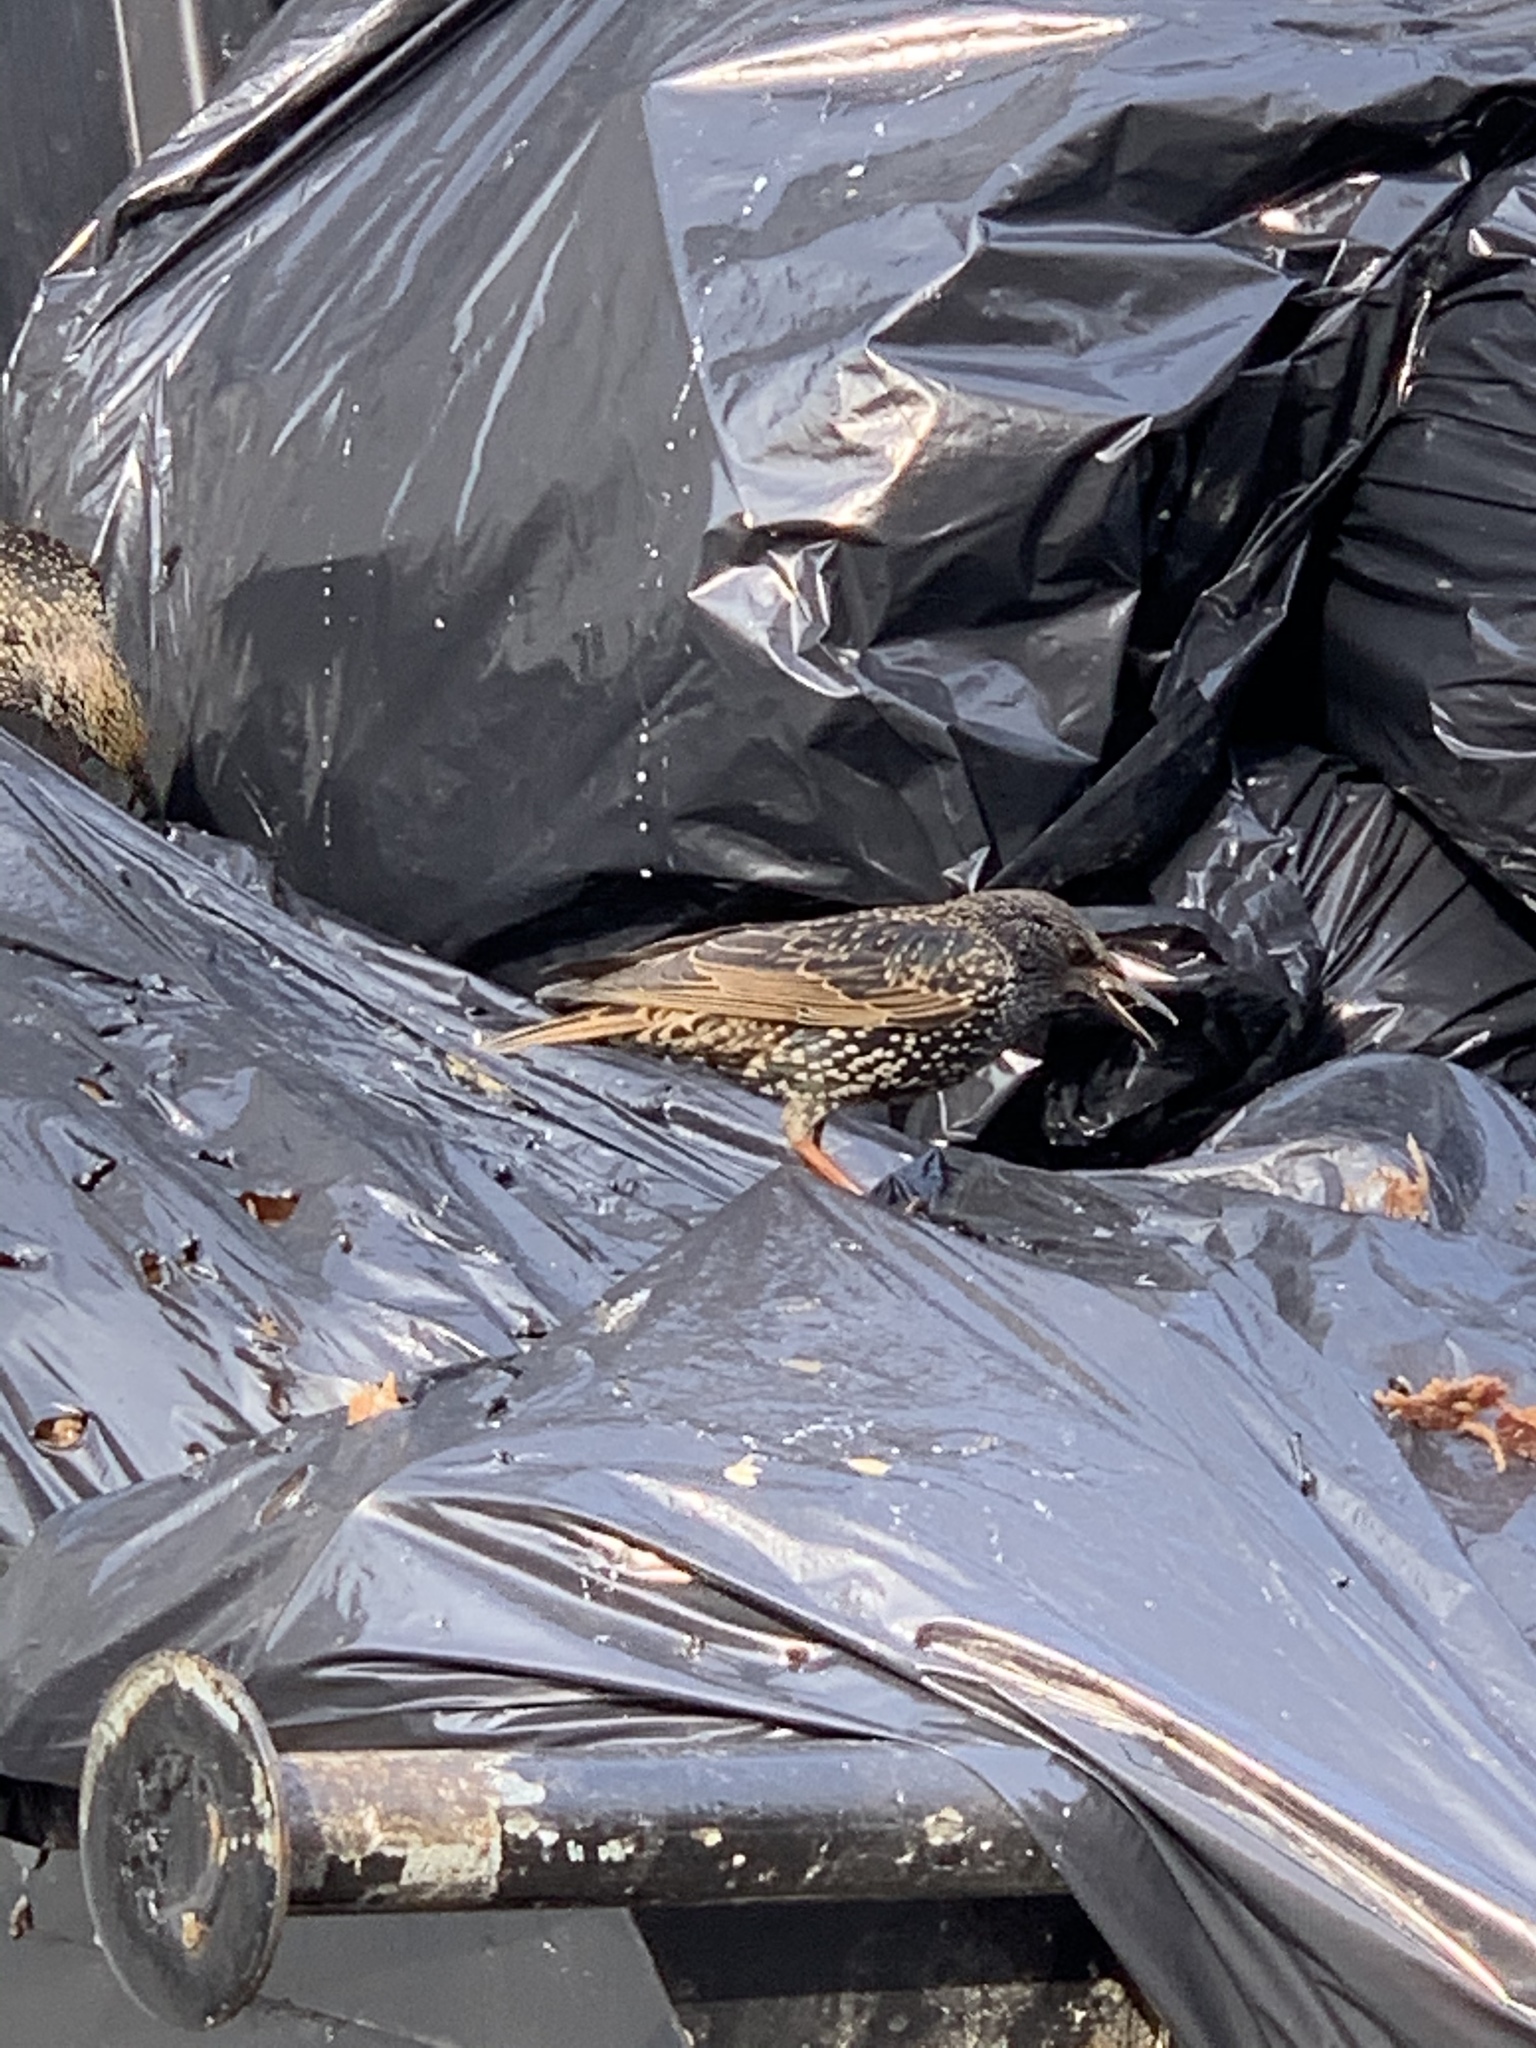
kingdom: Animalia
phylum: Chordata
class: Aves
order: Passeriformes
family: Sturnidae
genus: Sturnus
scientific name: Sturnus vulgaris
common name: Common starling
